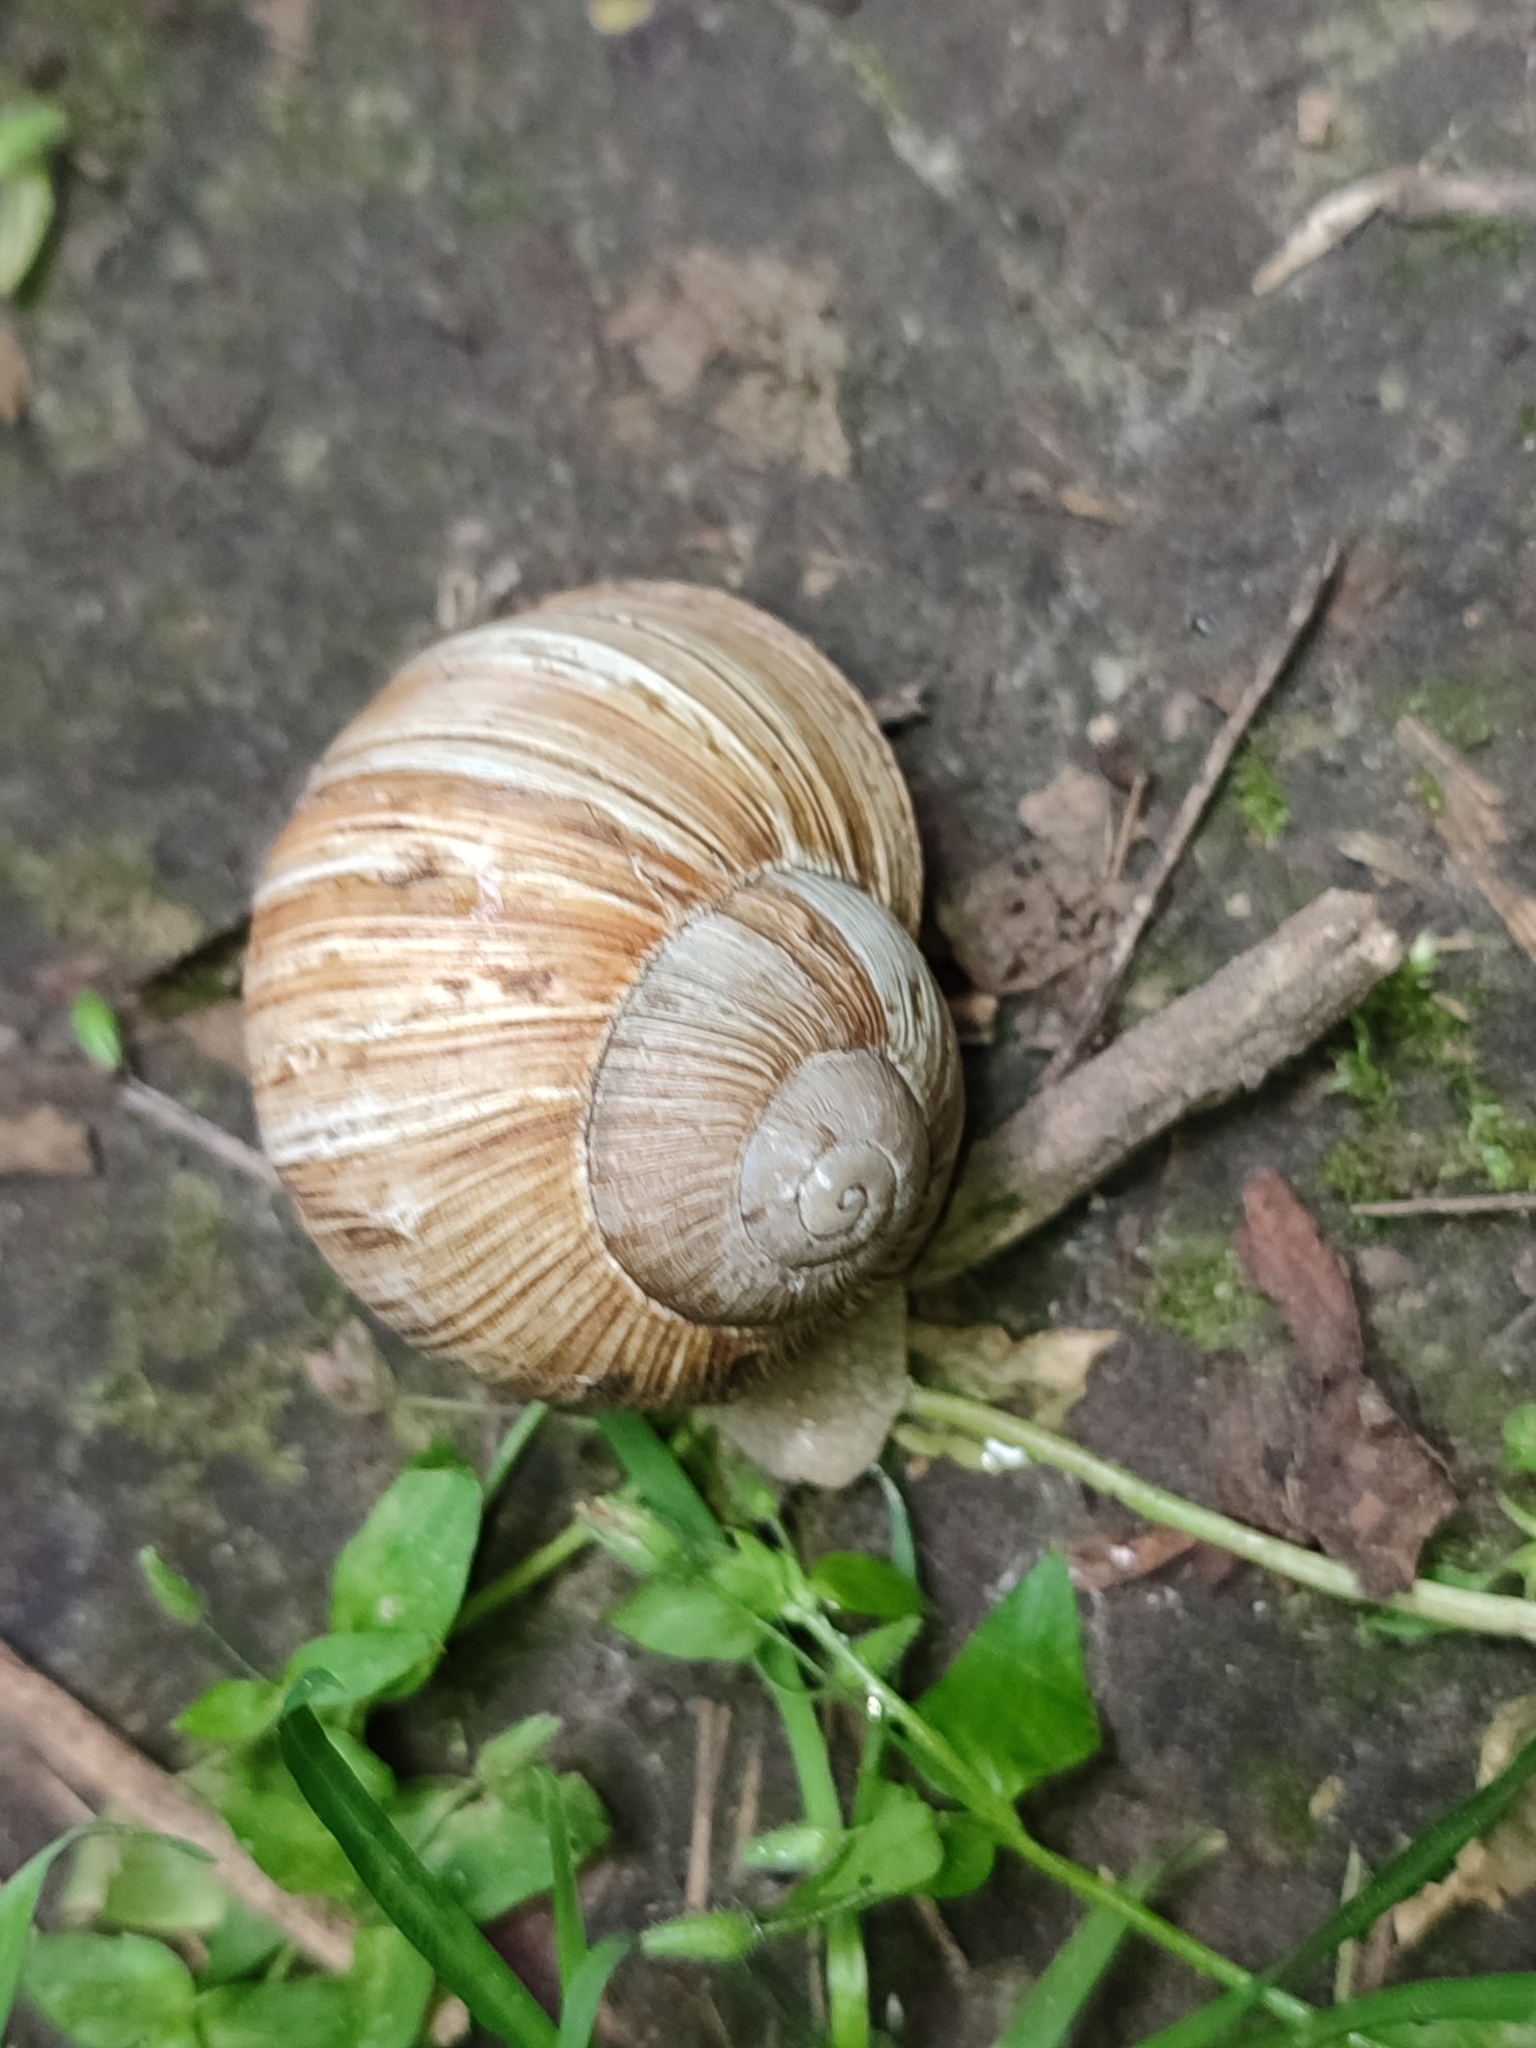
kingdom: Animalia
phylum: Mollusca
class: Gastropoda
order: Stylommatophora
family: Helicidae
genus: Helix
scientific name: Helix pomatia
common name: Roman snail
